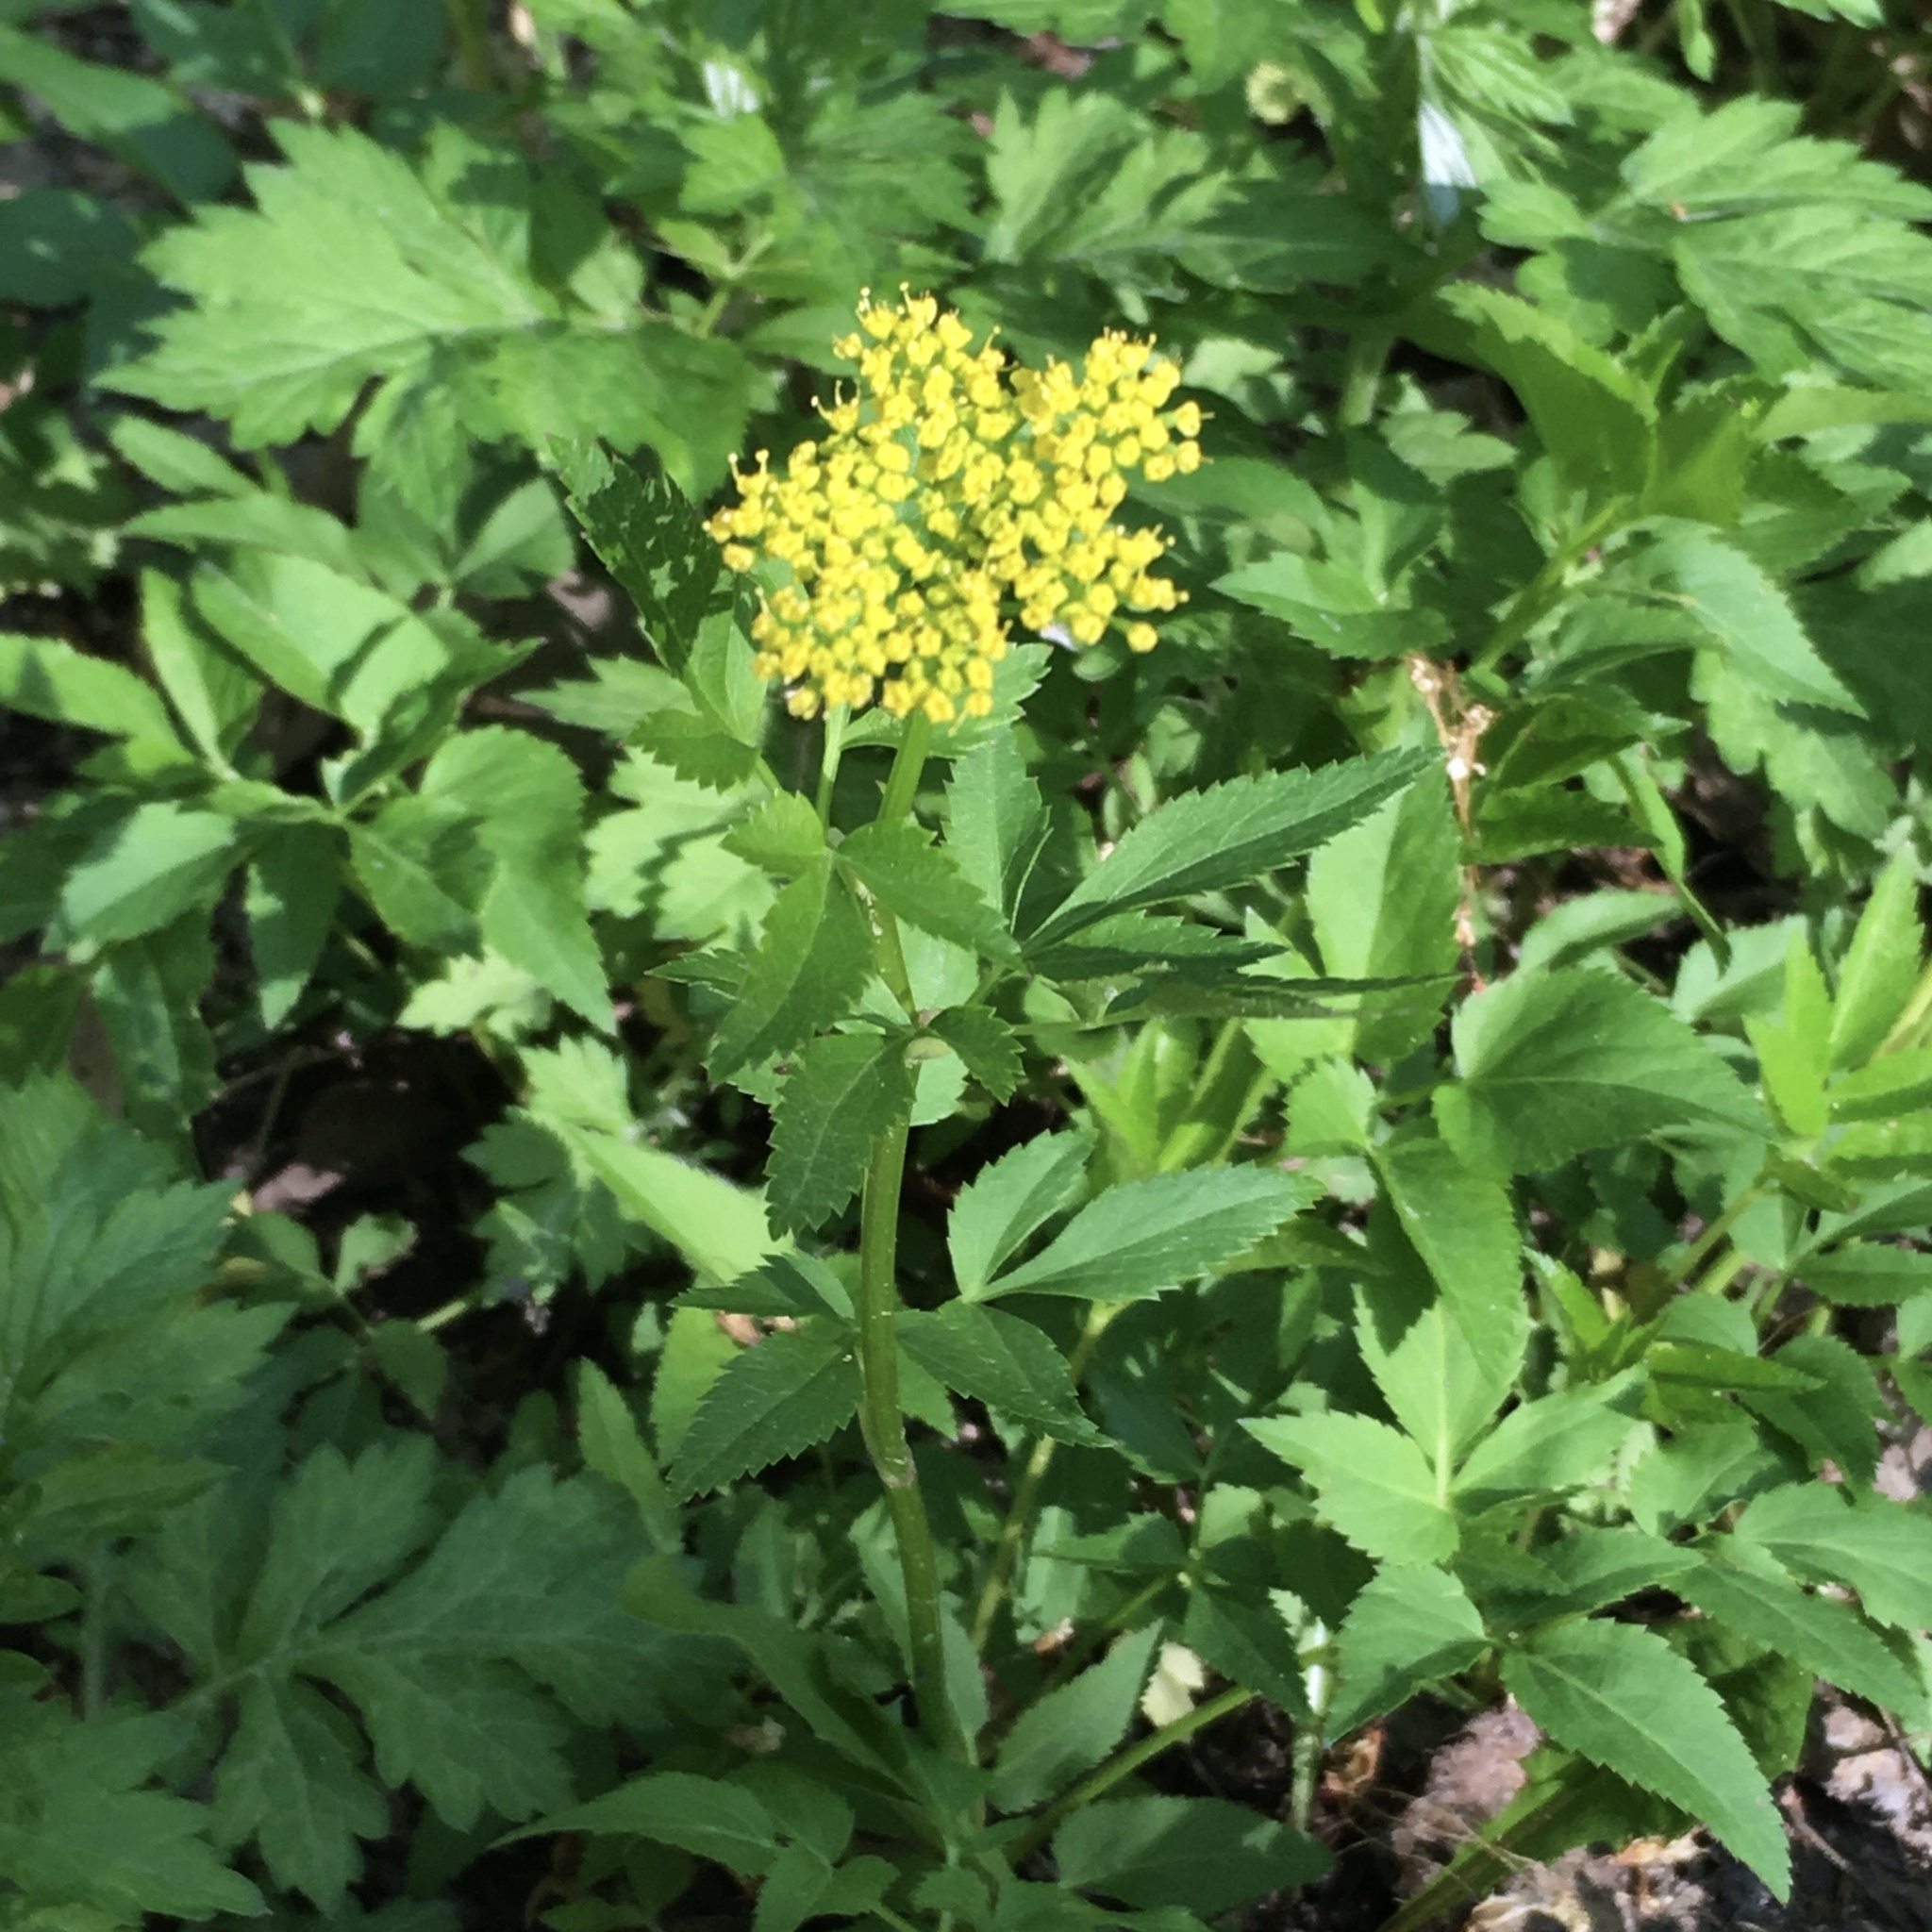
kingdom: Plantae
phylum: Tracheophyta
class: Magnoliopsida
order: Apiales
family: Apiaceae
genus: Zizia
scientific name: Zizia aurea
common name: Golden alexanders
